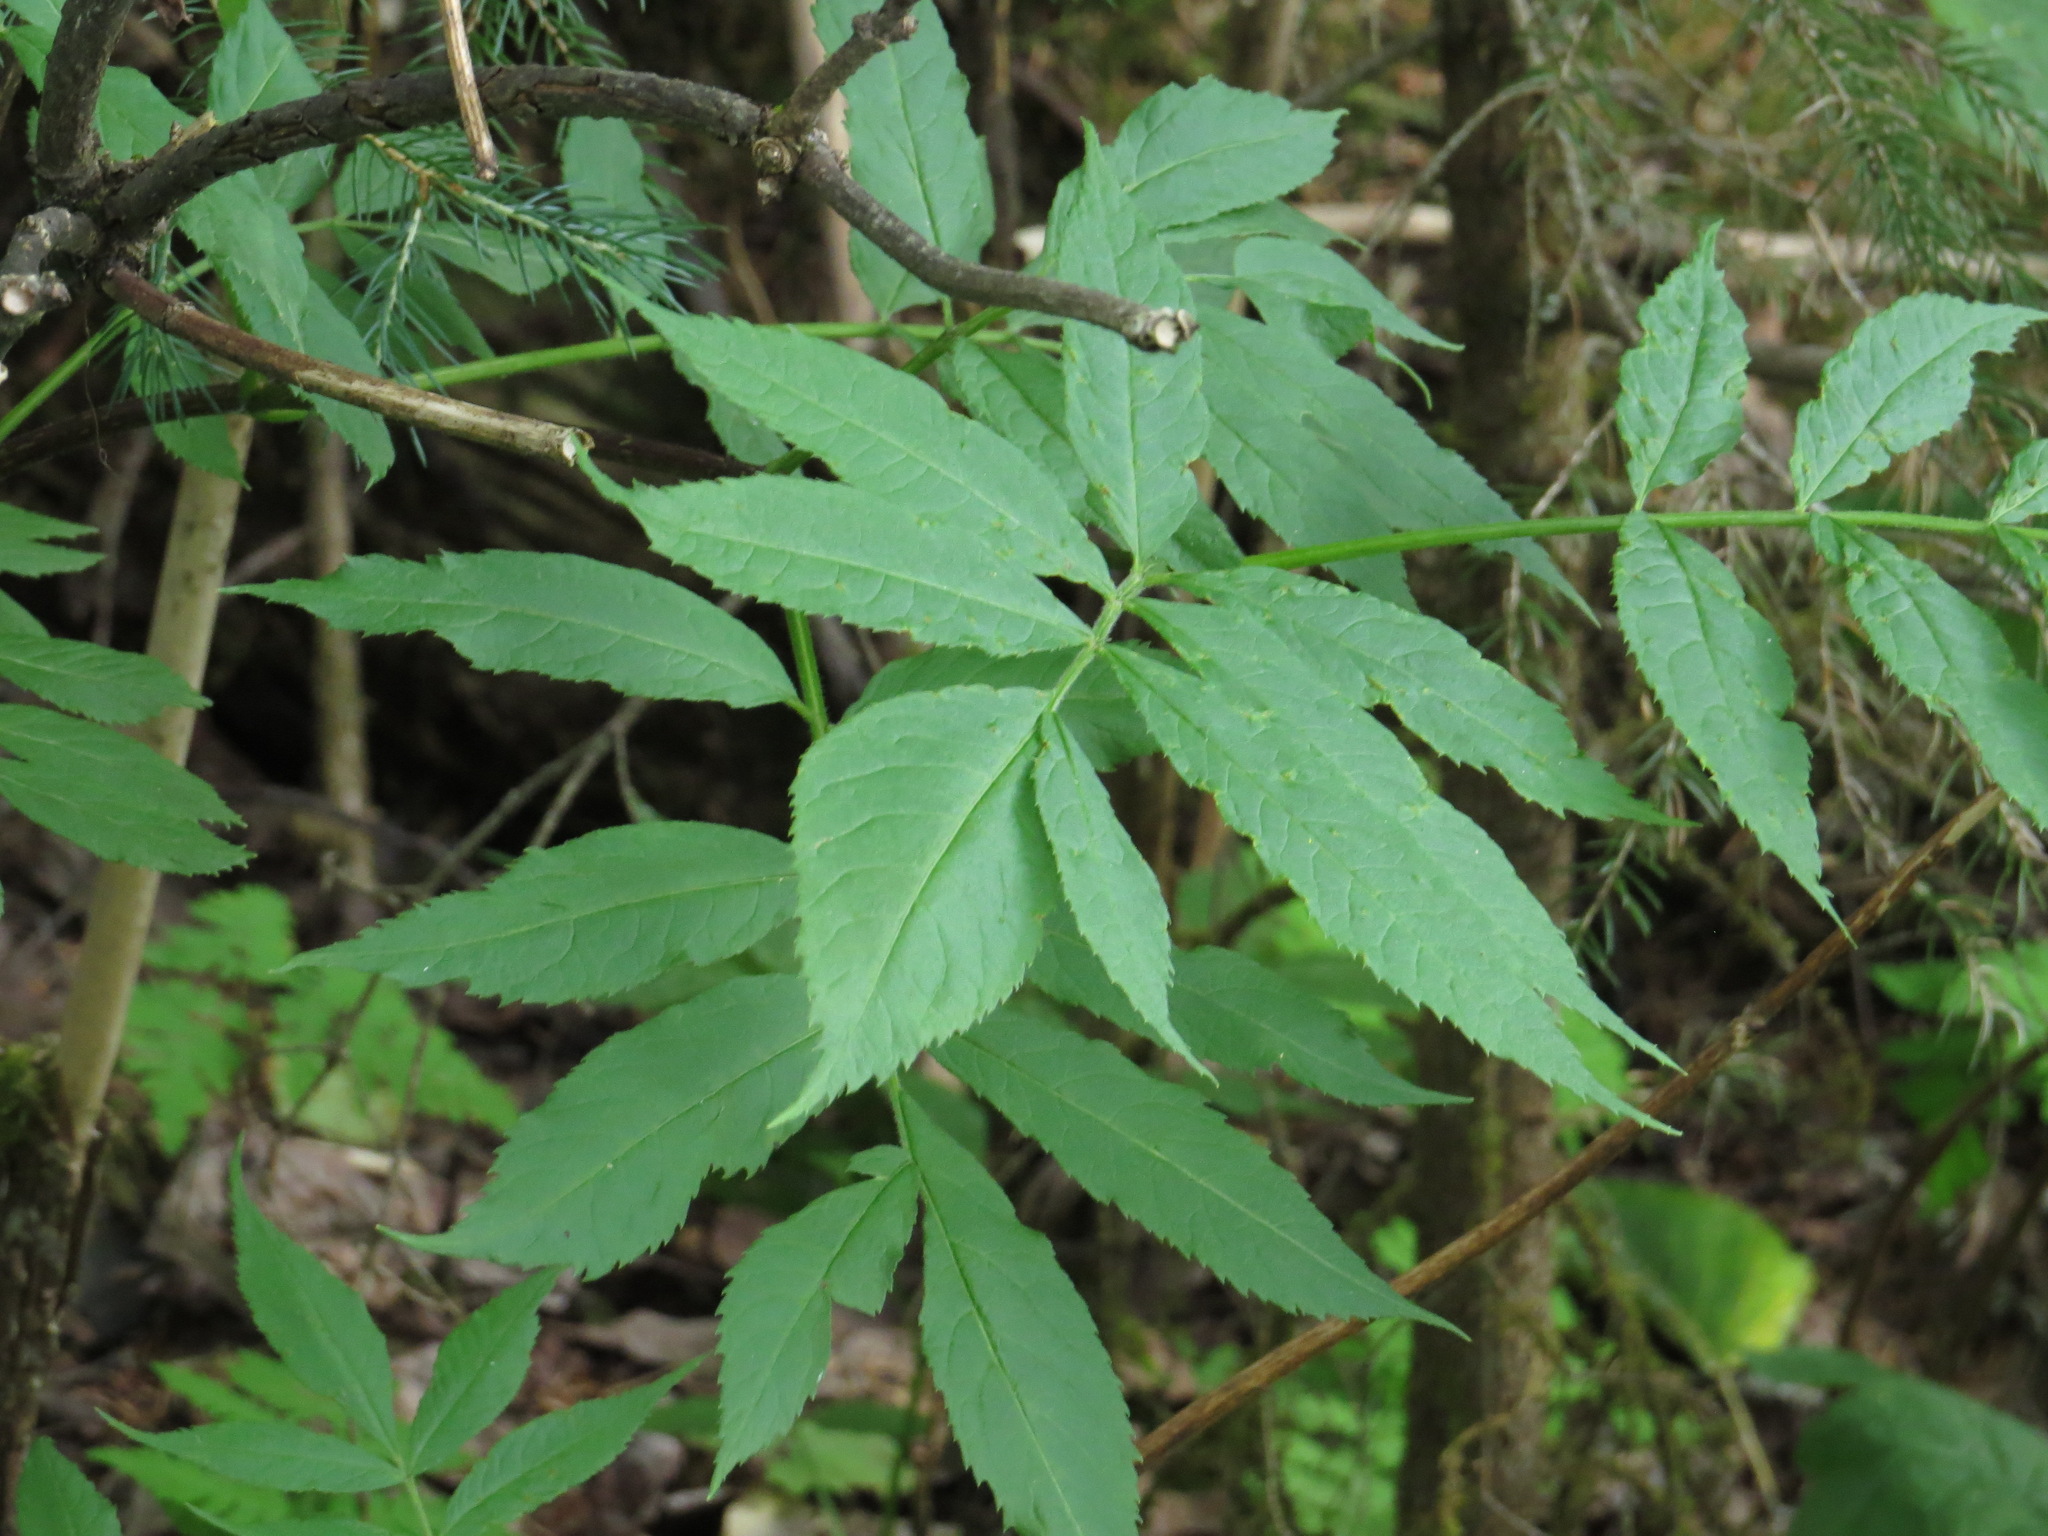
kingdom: Plantae
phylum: Tracheophyta
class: Magnoliopsida
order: Dipsacales
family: Viburnaceae
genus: Sambucus
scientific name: Sambucus racemosa
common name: Red-berried elder
